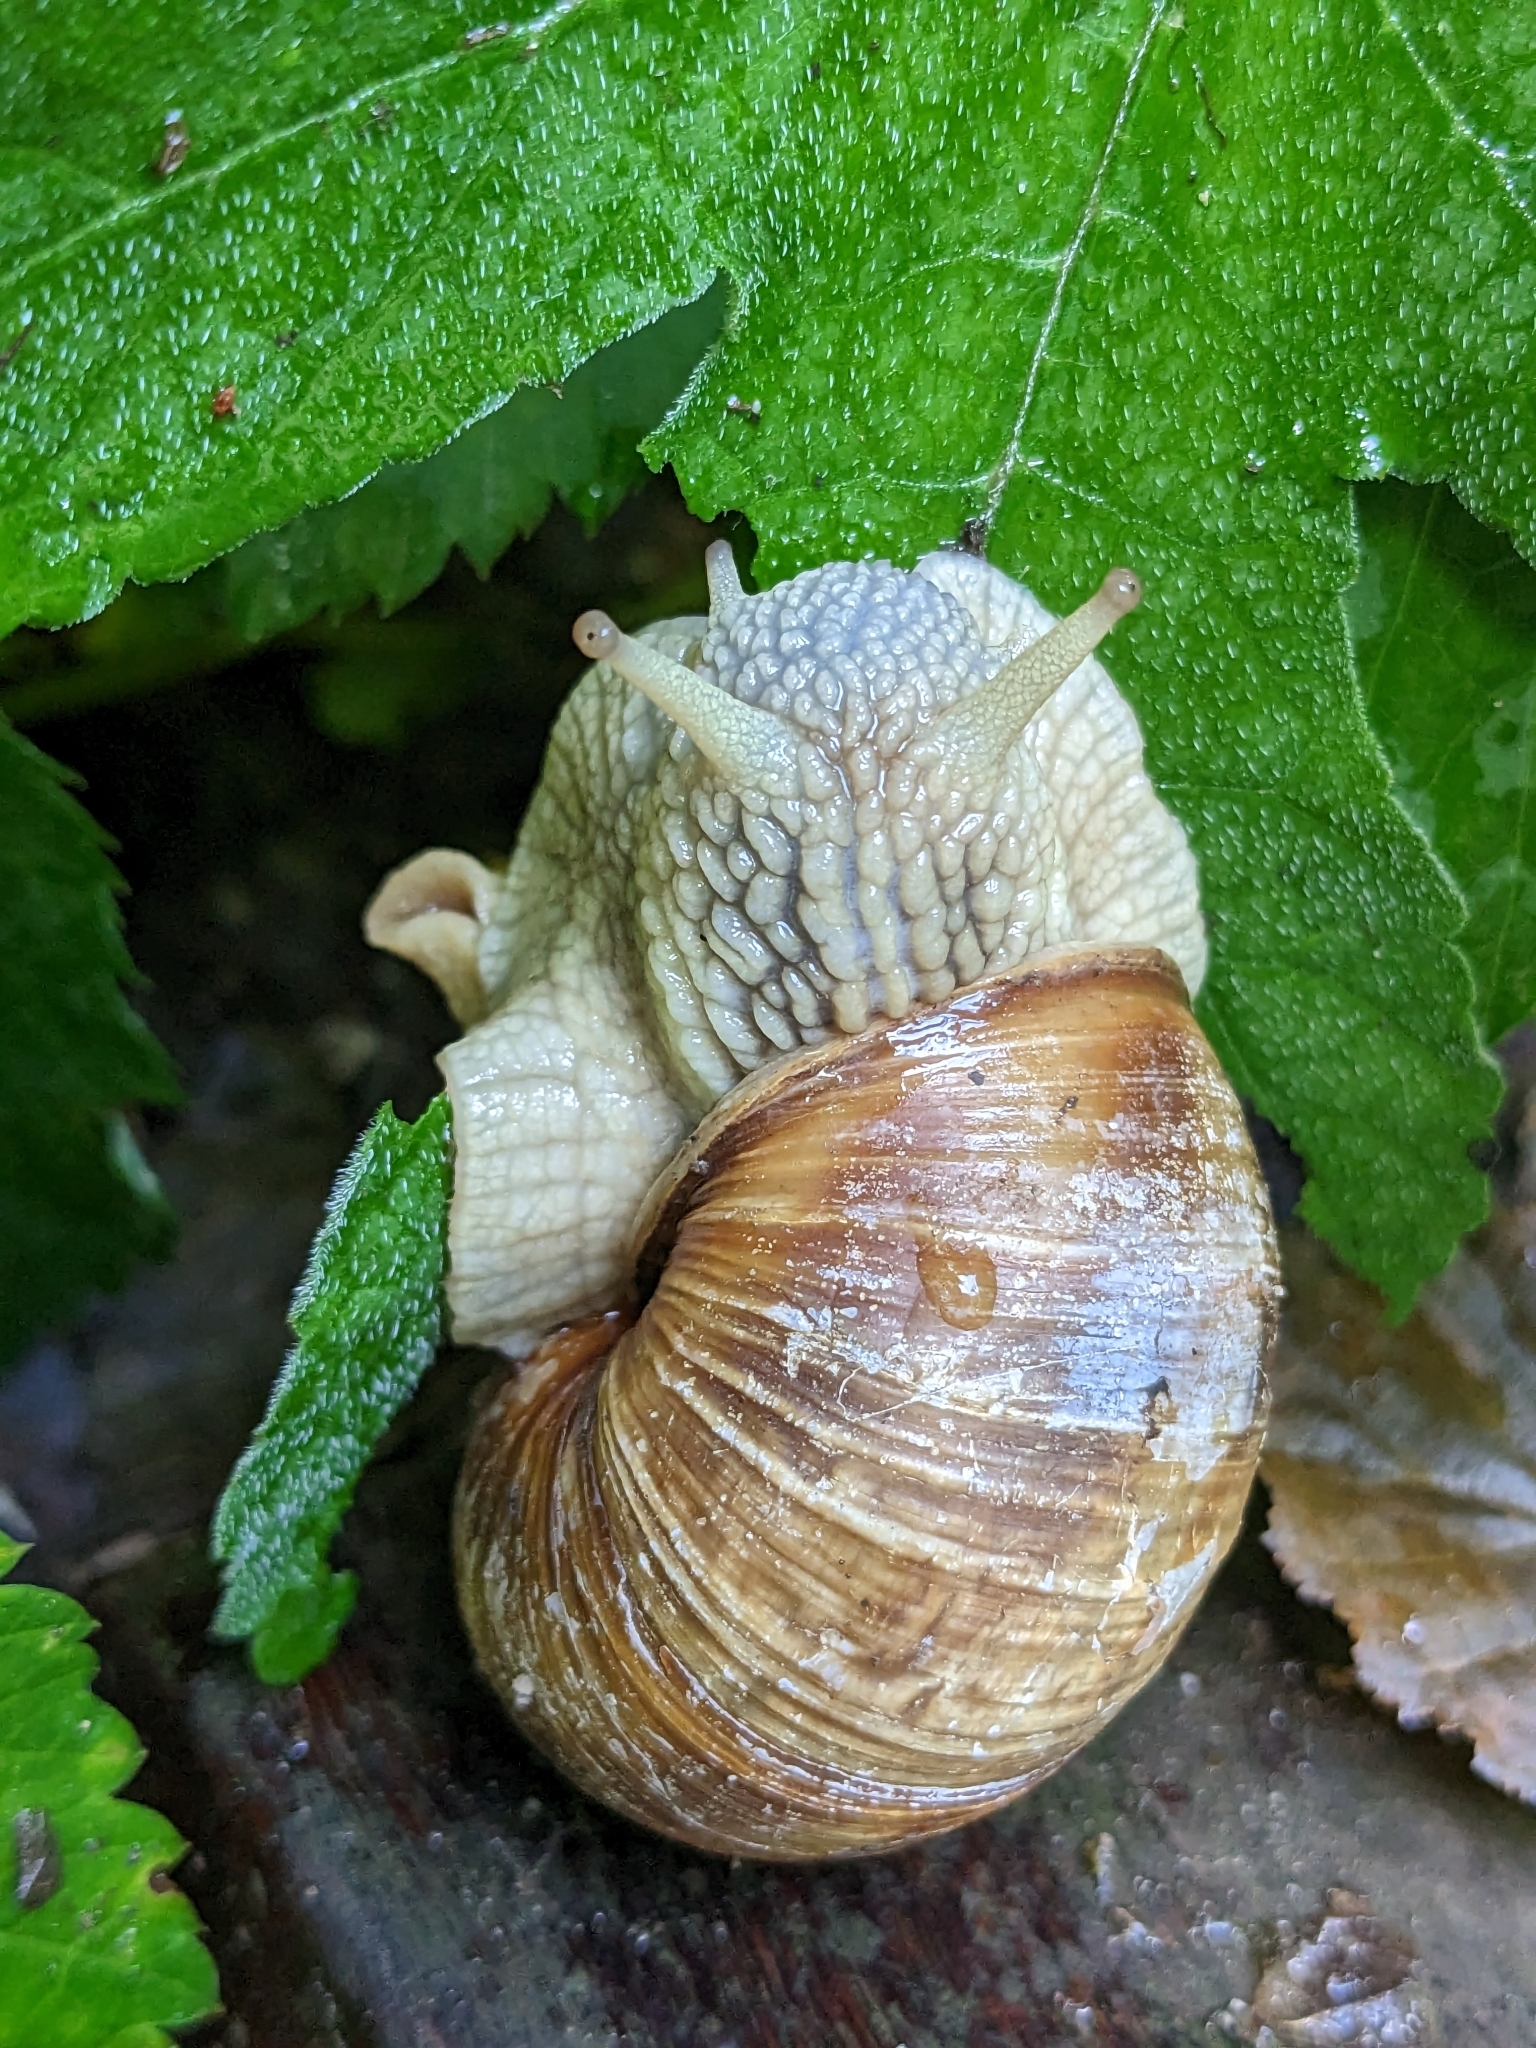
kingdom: Animalia
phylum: Mollusca
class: Gastropoda
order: Stylommatophora
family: Helicidae
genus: Helix
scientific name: Helix pomatia
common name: Roman snail
